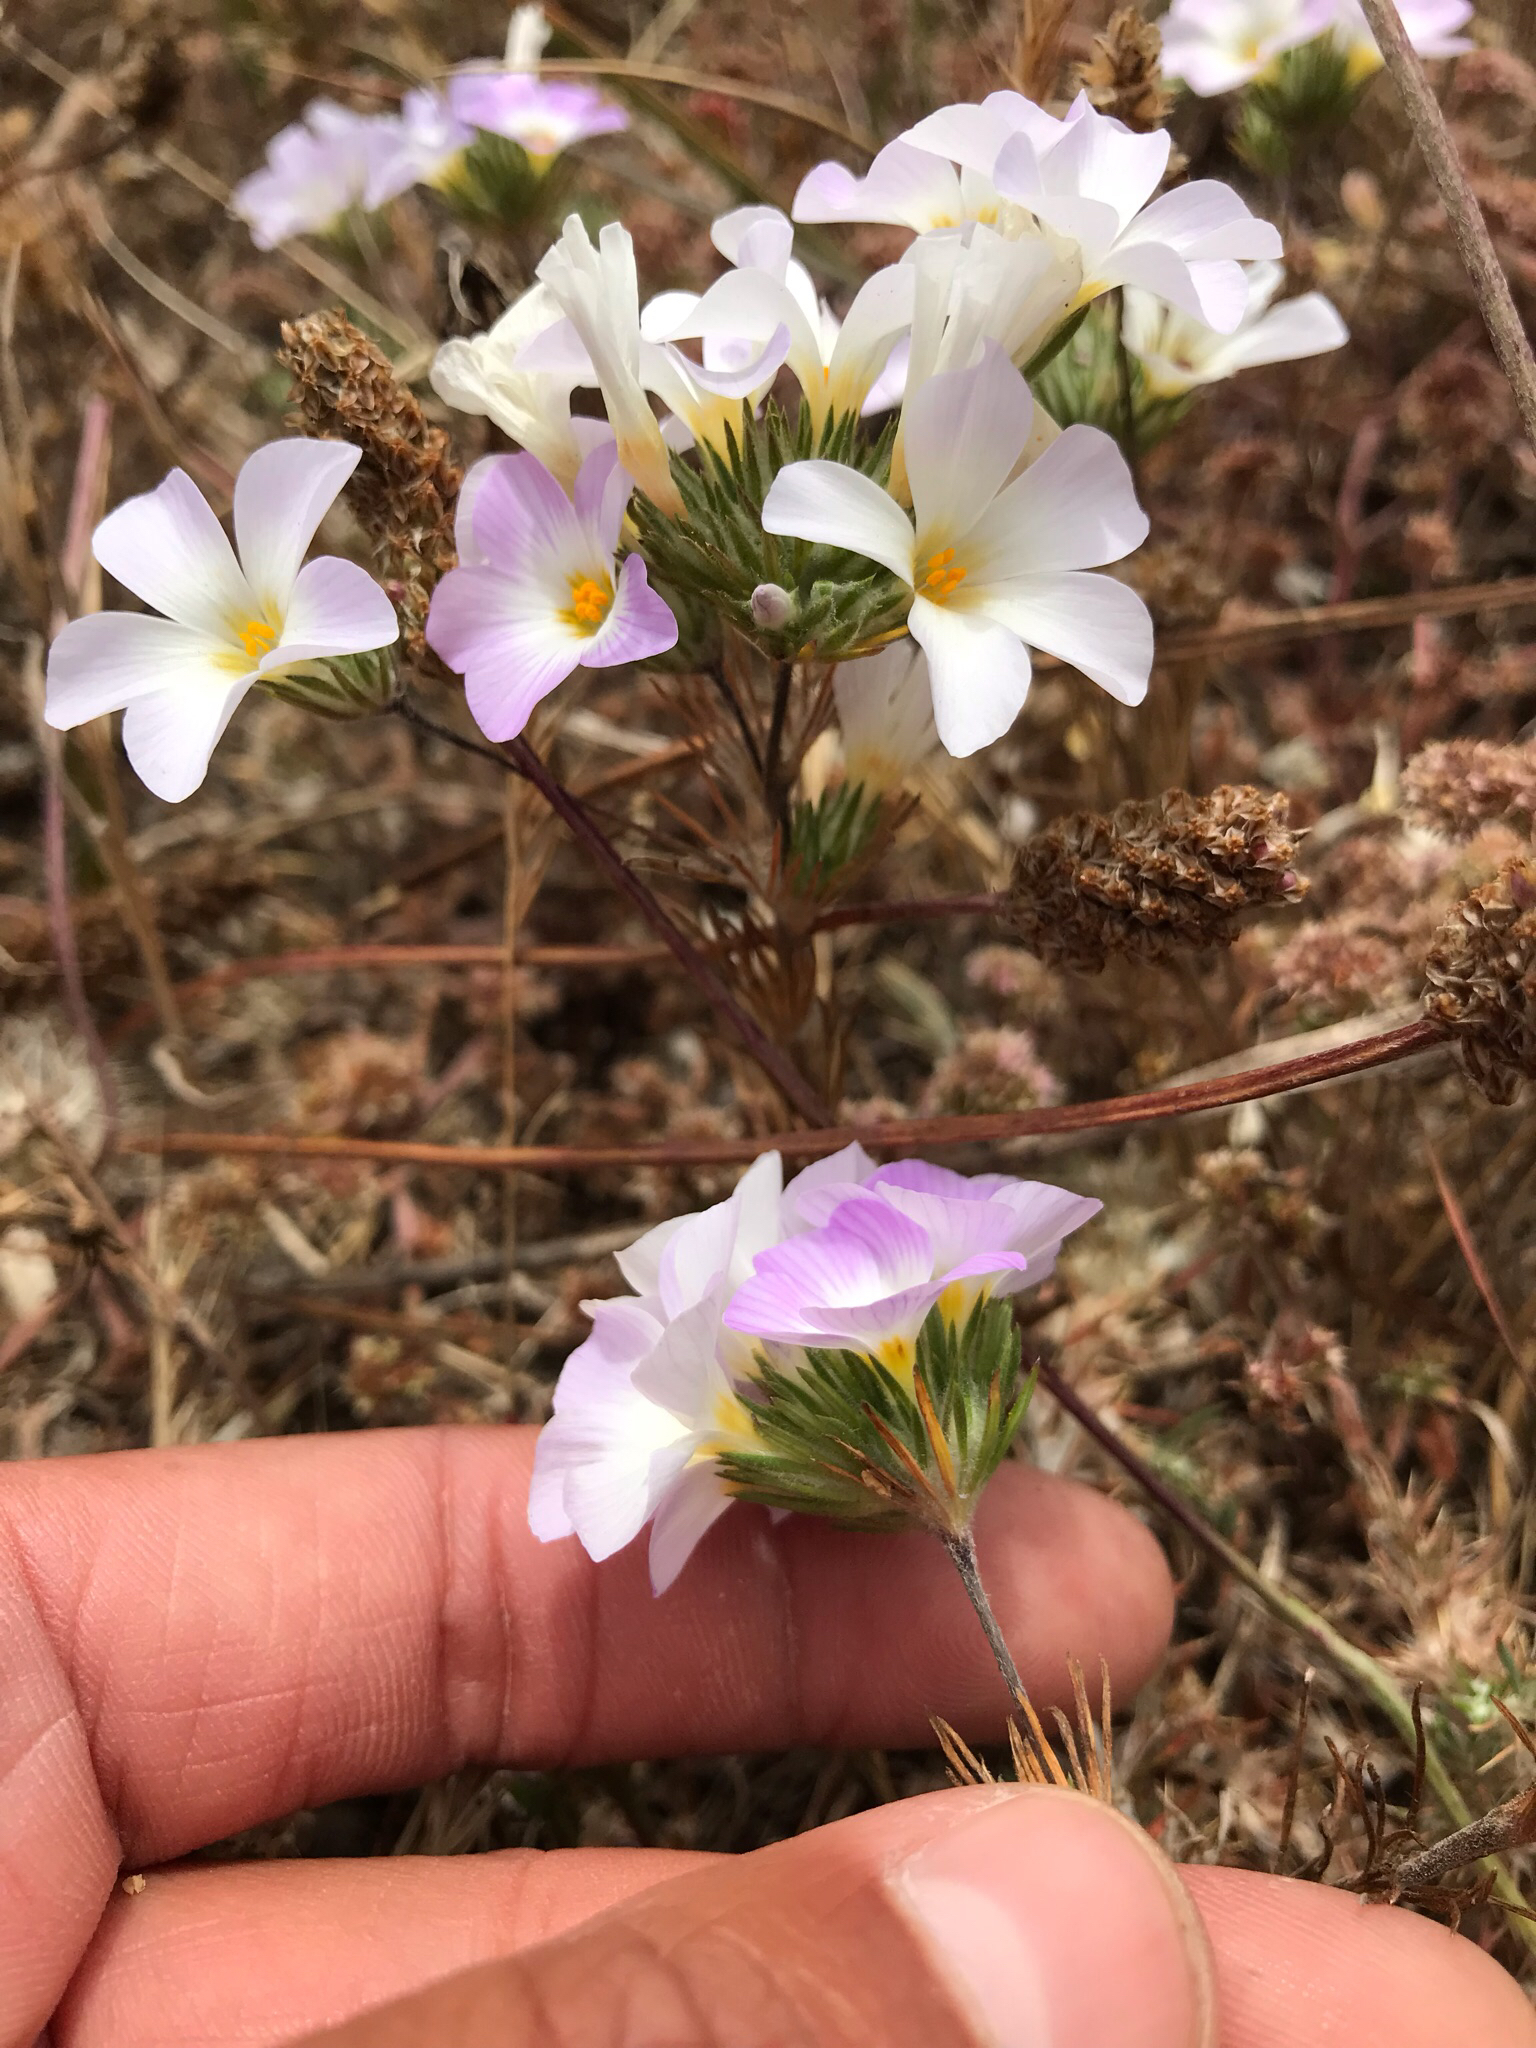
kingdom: Plantae
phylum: Tracheophyta
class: Magnoliopsida
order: Ericales
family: Polemoniaceae
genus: Leptosiphon
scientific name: Leptosiphon grandiflorus
